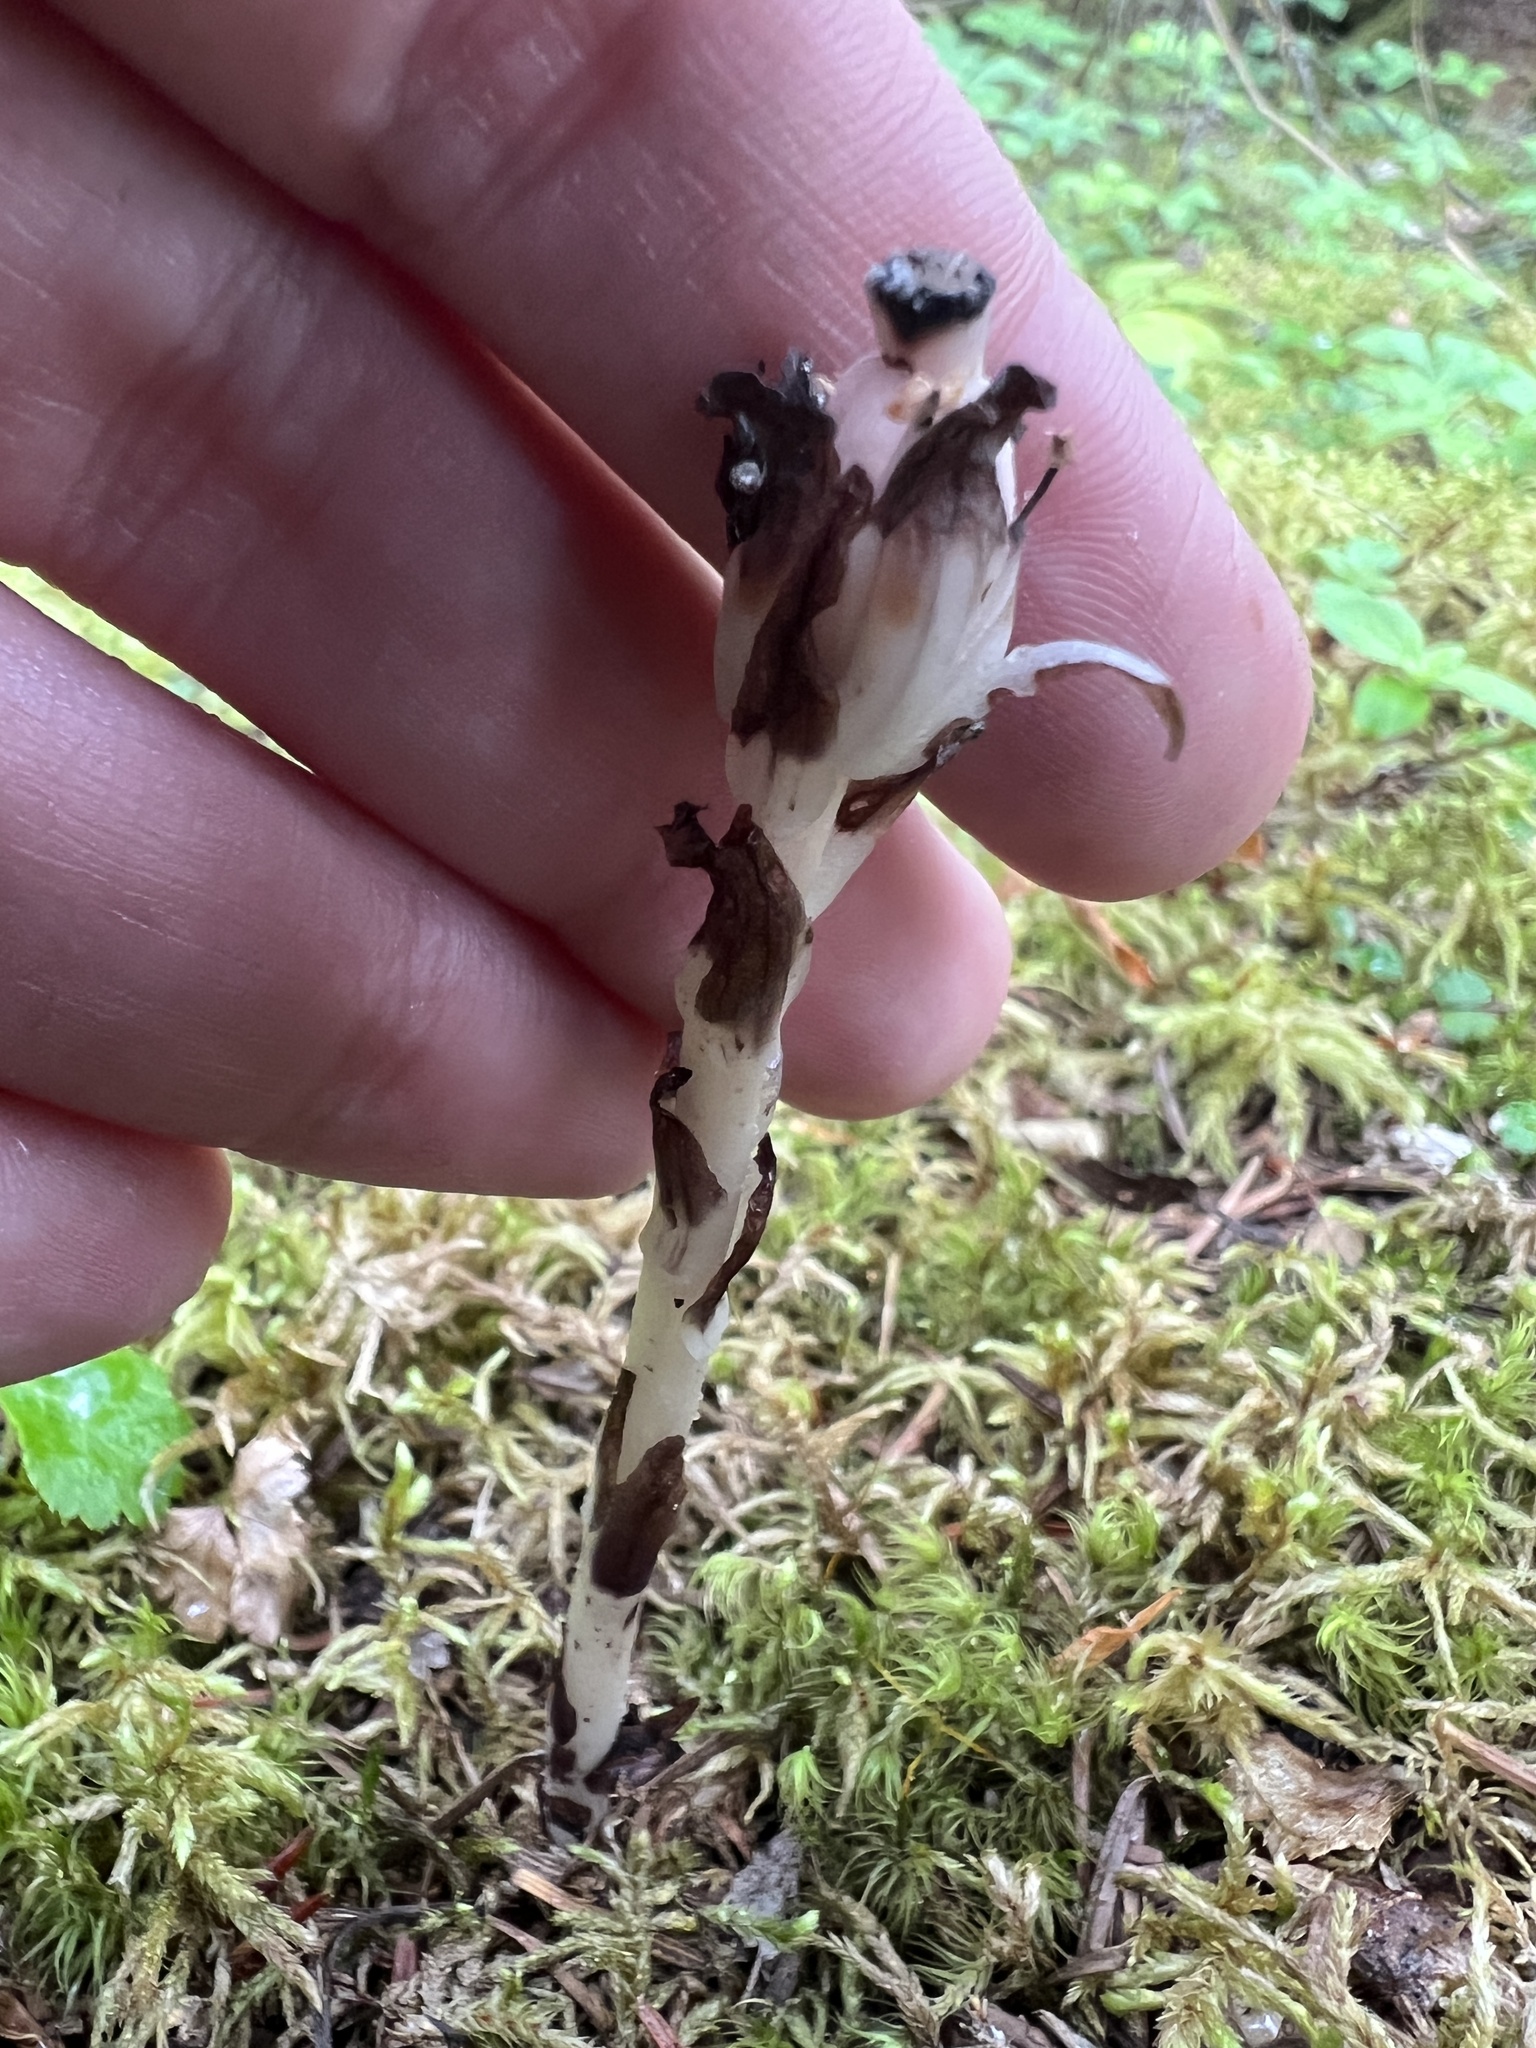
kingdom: Plantae
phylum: Tracheophyta
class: Magnoliopsida
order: Ericales
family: Ericaceae
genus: Monotropa
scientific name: Monotropa uniflora
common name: Convulsion root
